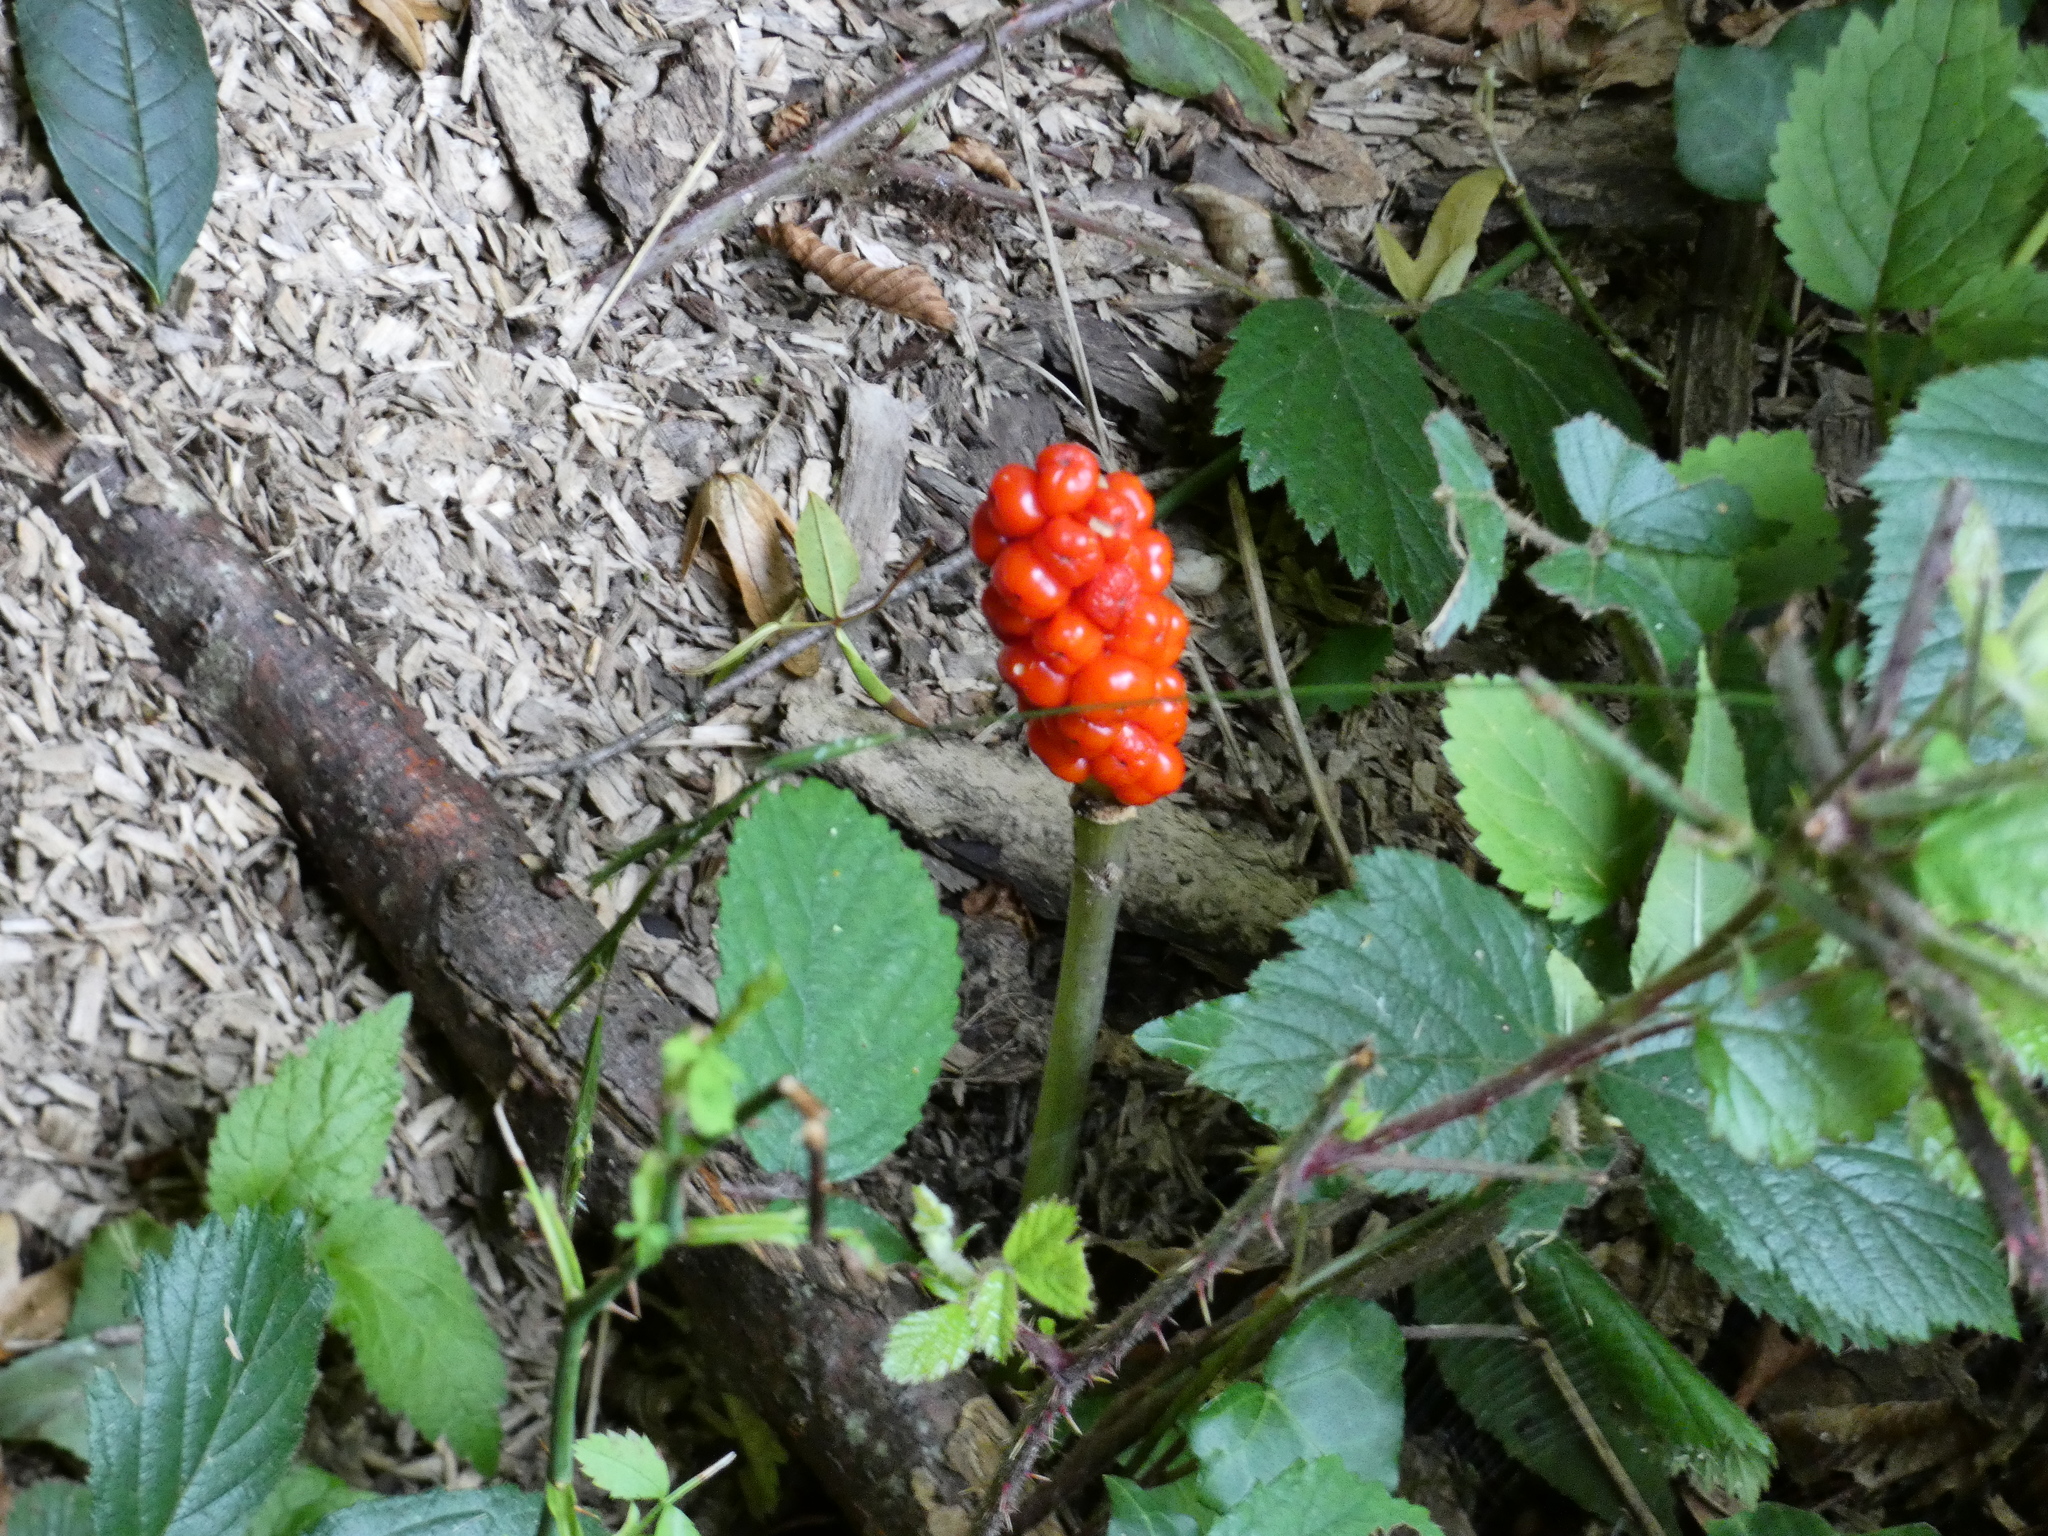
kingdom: Plantae
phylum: Tracheophyta
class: Liliopsida
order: Alismatales
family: Araceae
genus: Arum
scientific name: Arum maculatum
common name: Lords-and-ladies
